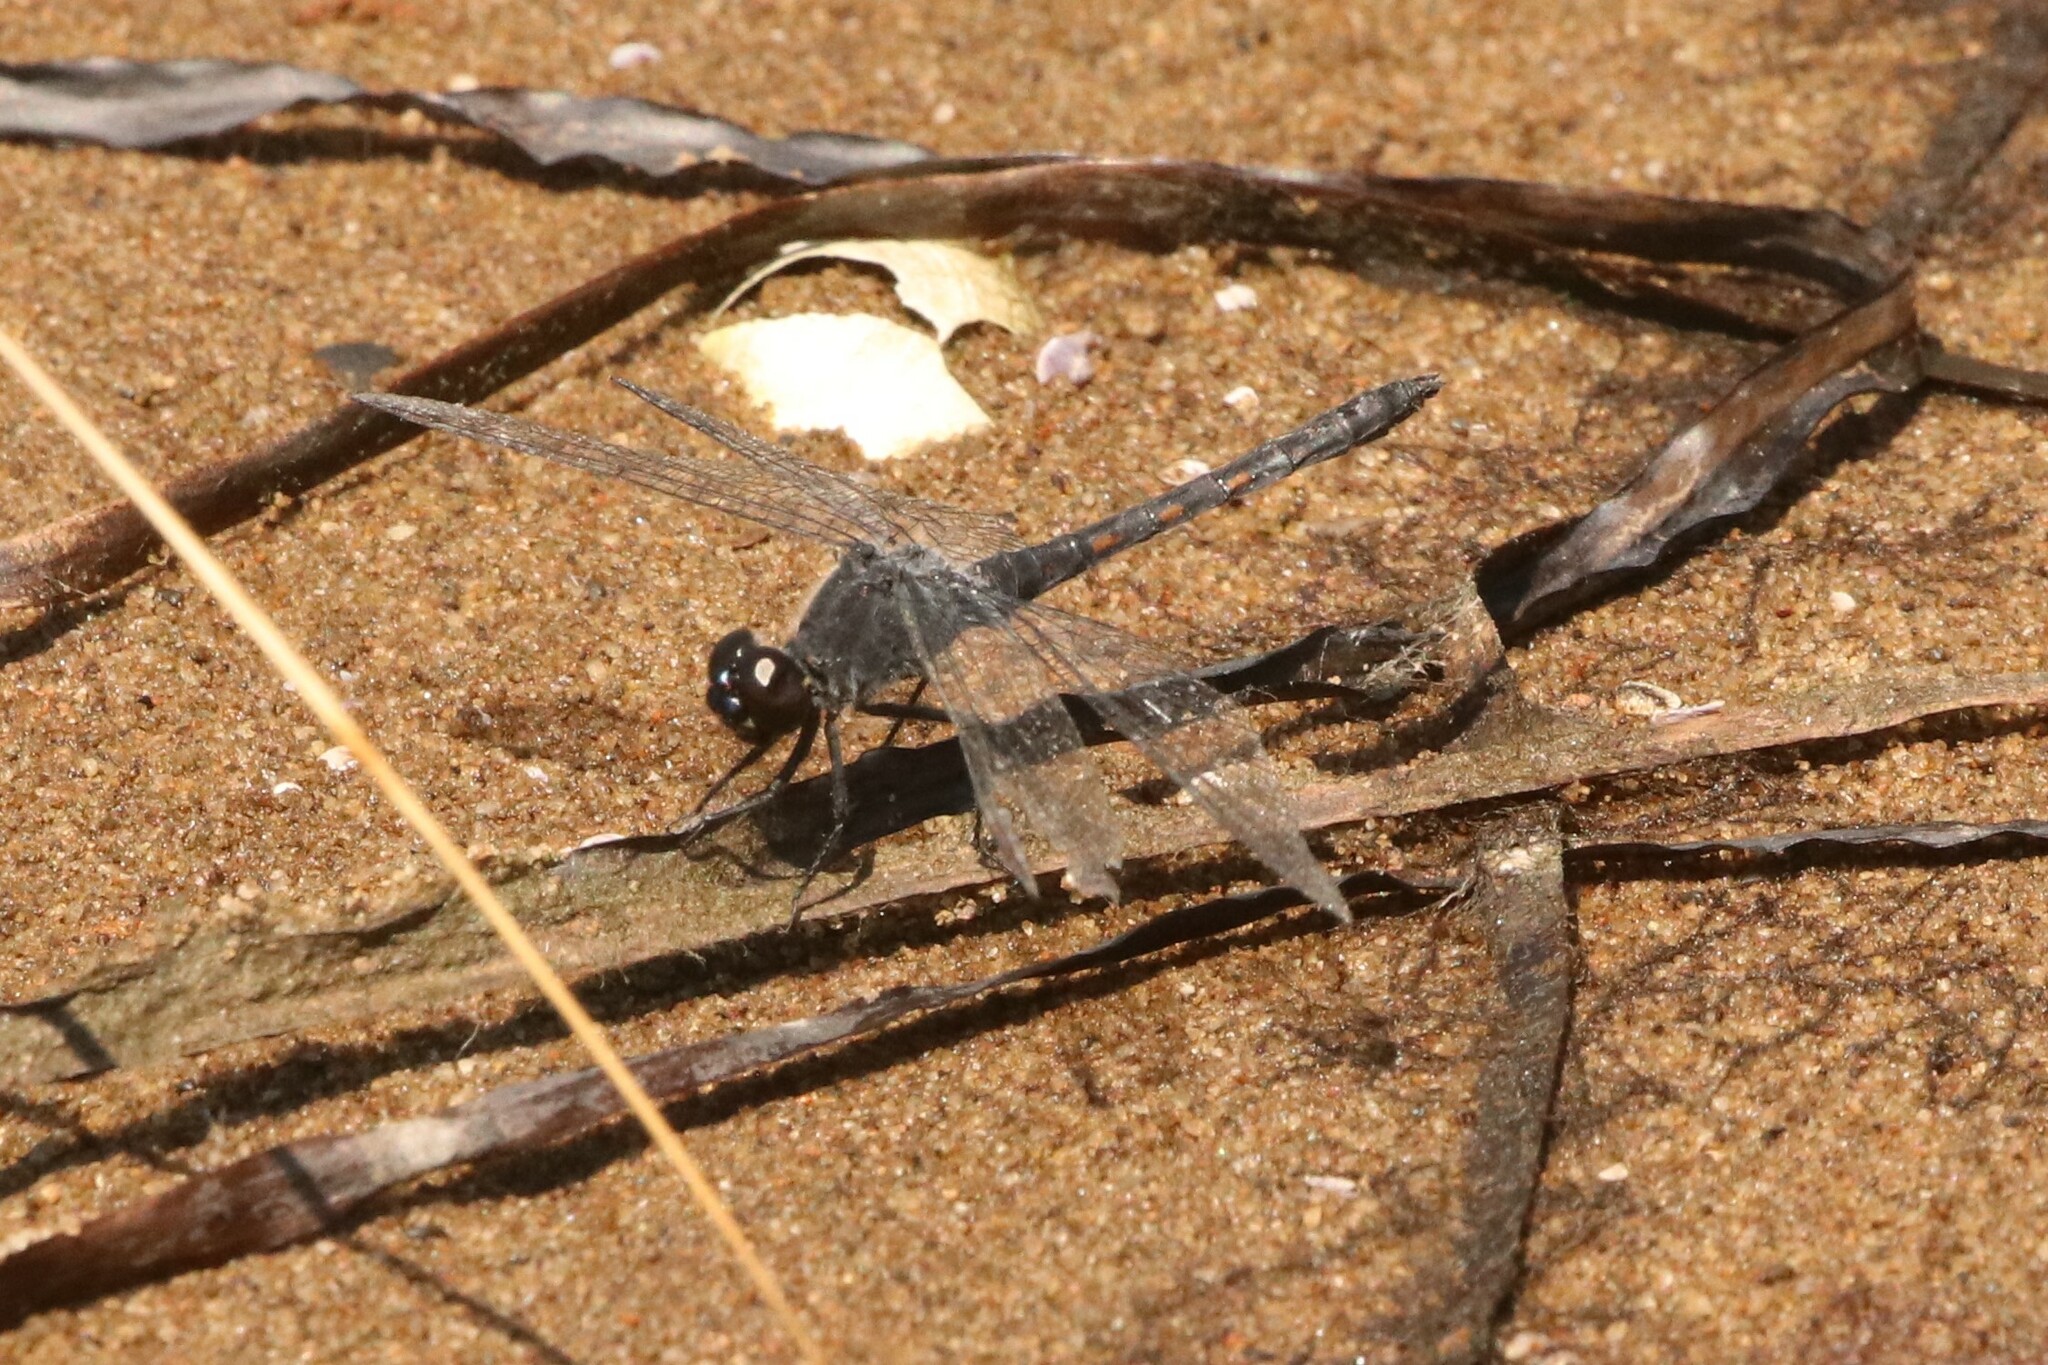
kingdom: Animalia
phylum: Arthropoda
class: Insecta
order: Odonata
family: Libellulidae
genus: Erythrodiplax
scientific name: Erythrodiplax berenice
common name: Seaside dragonlet
